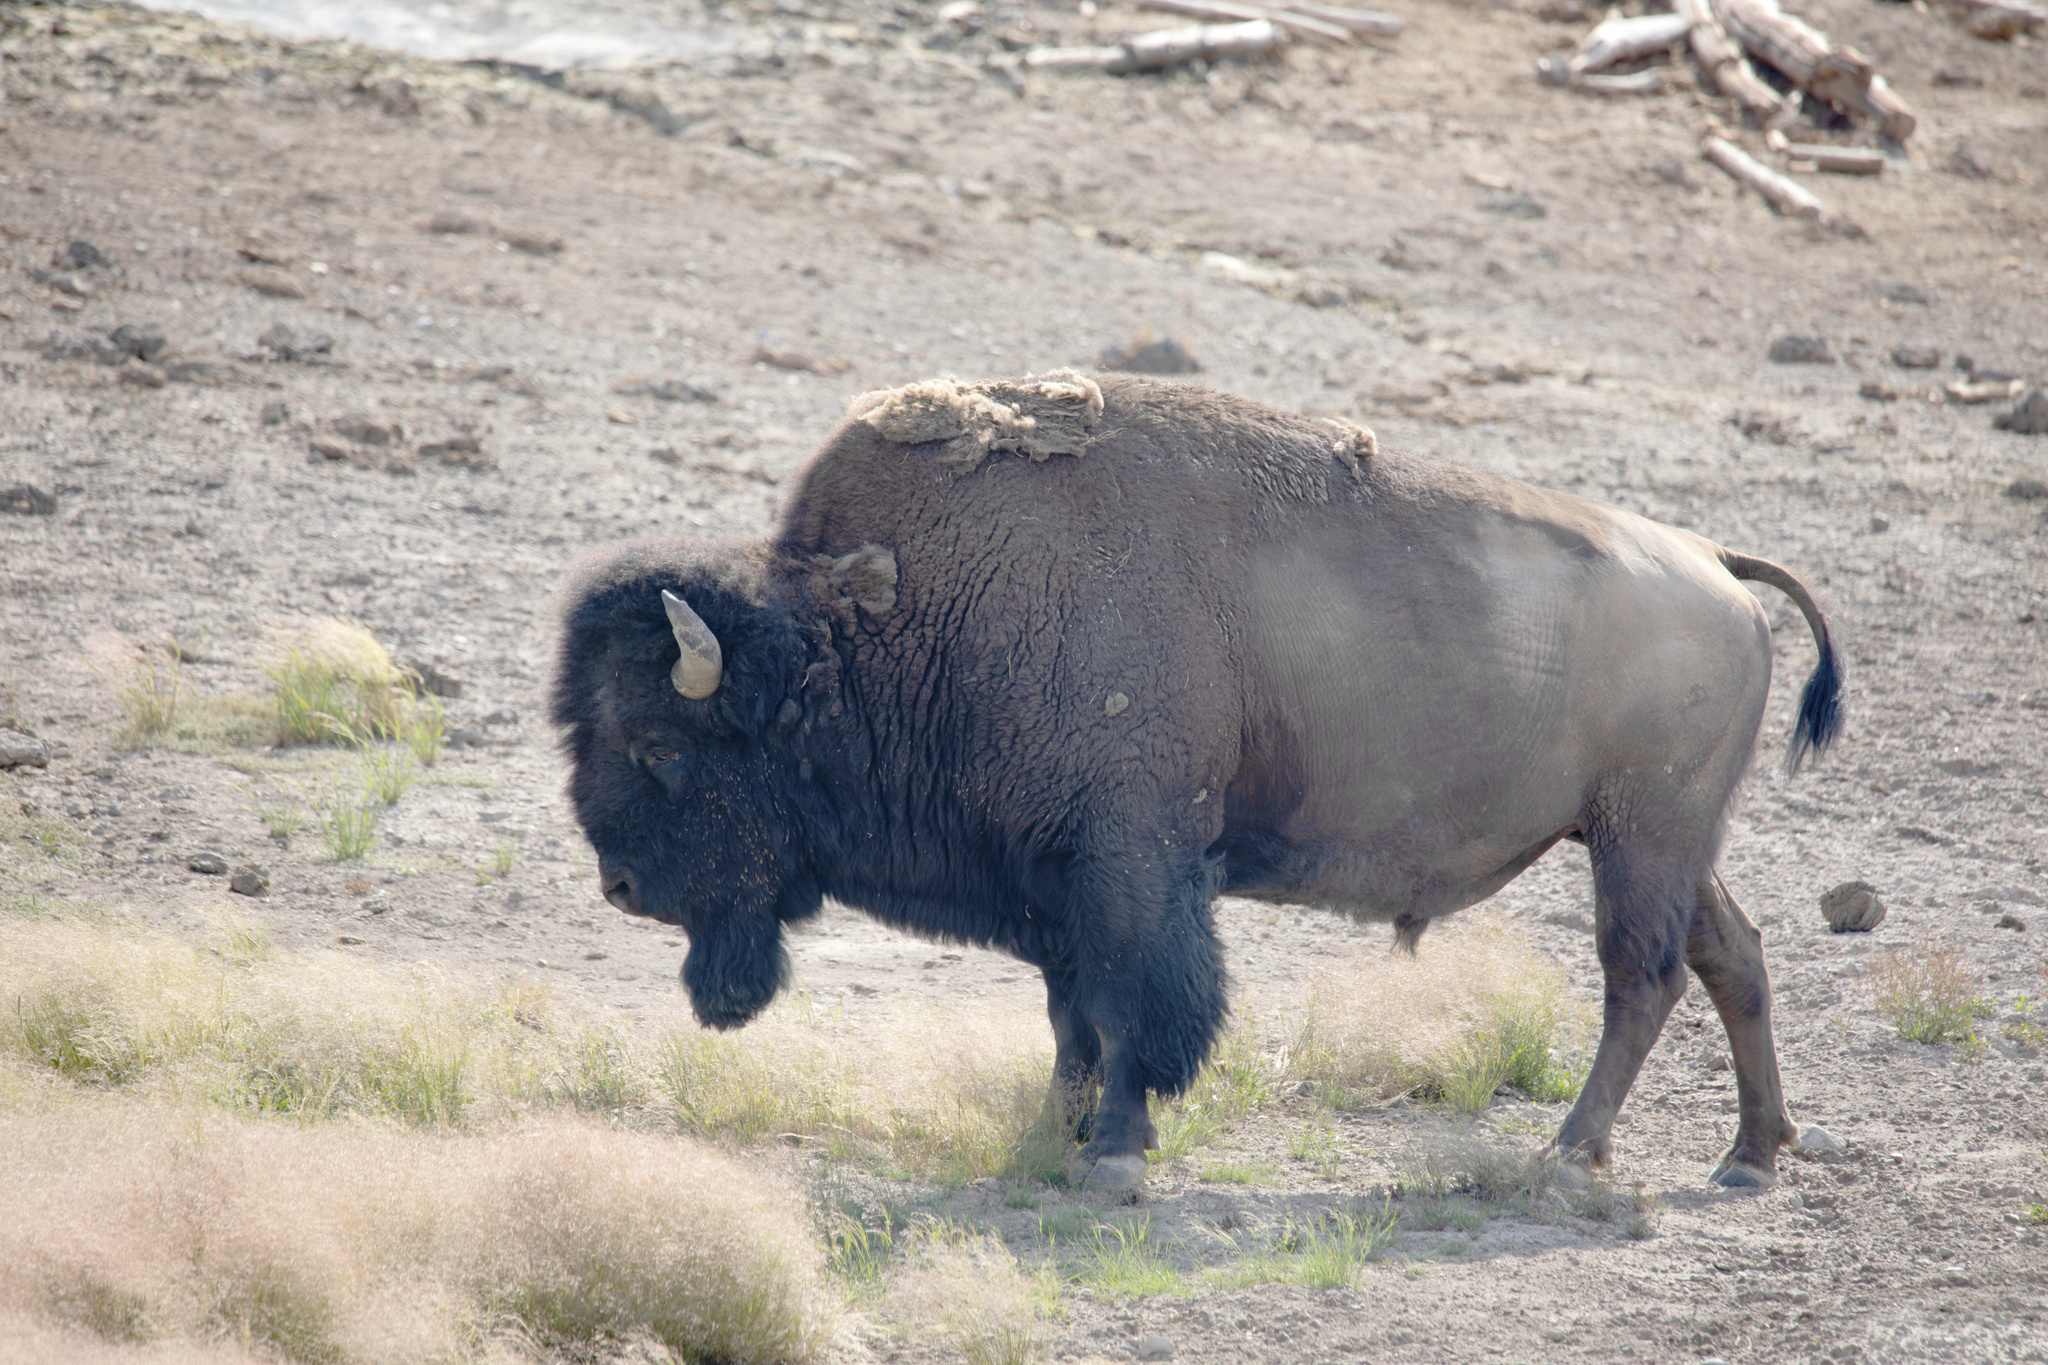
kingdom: Animalia
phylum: Chordata
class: Mammalia
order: Artiodactyla
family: Bovidae
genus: Bison
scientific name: Bison bison
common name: American bison
